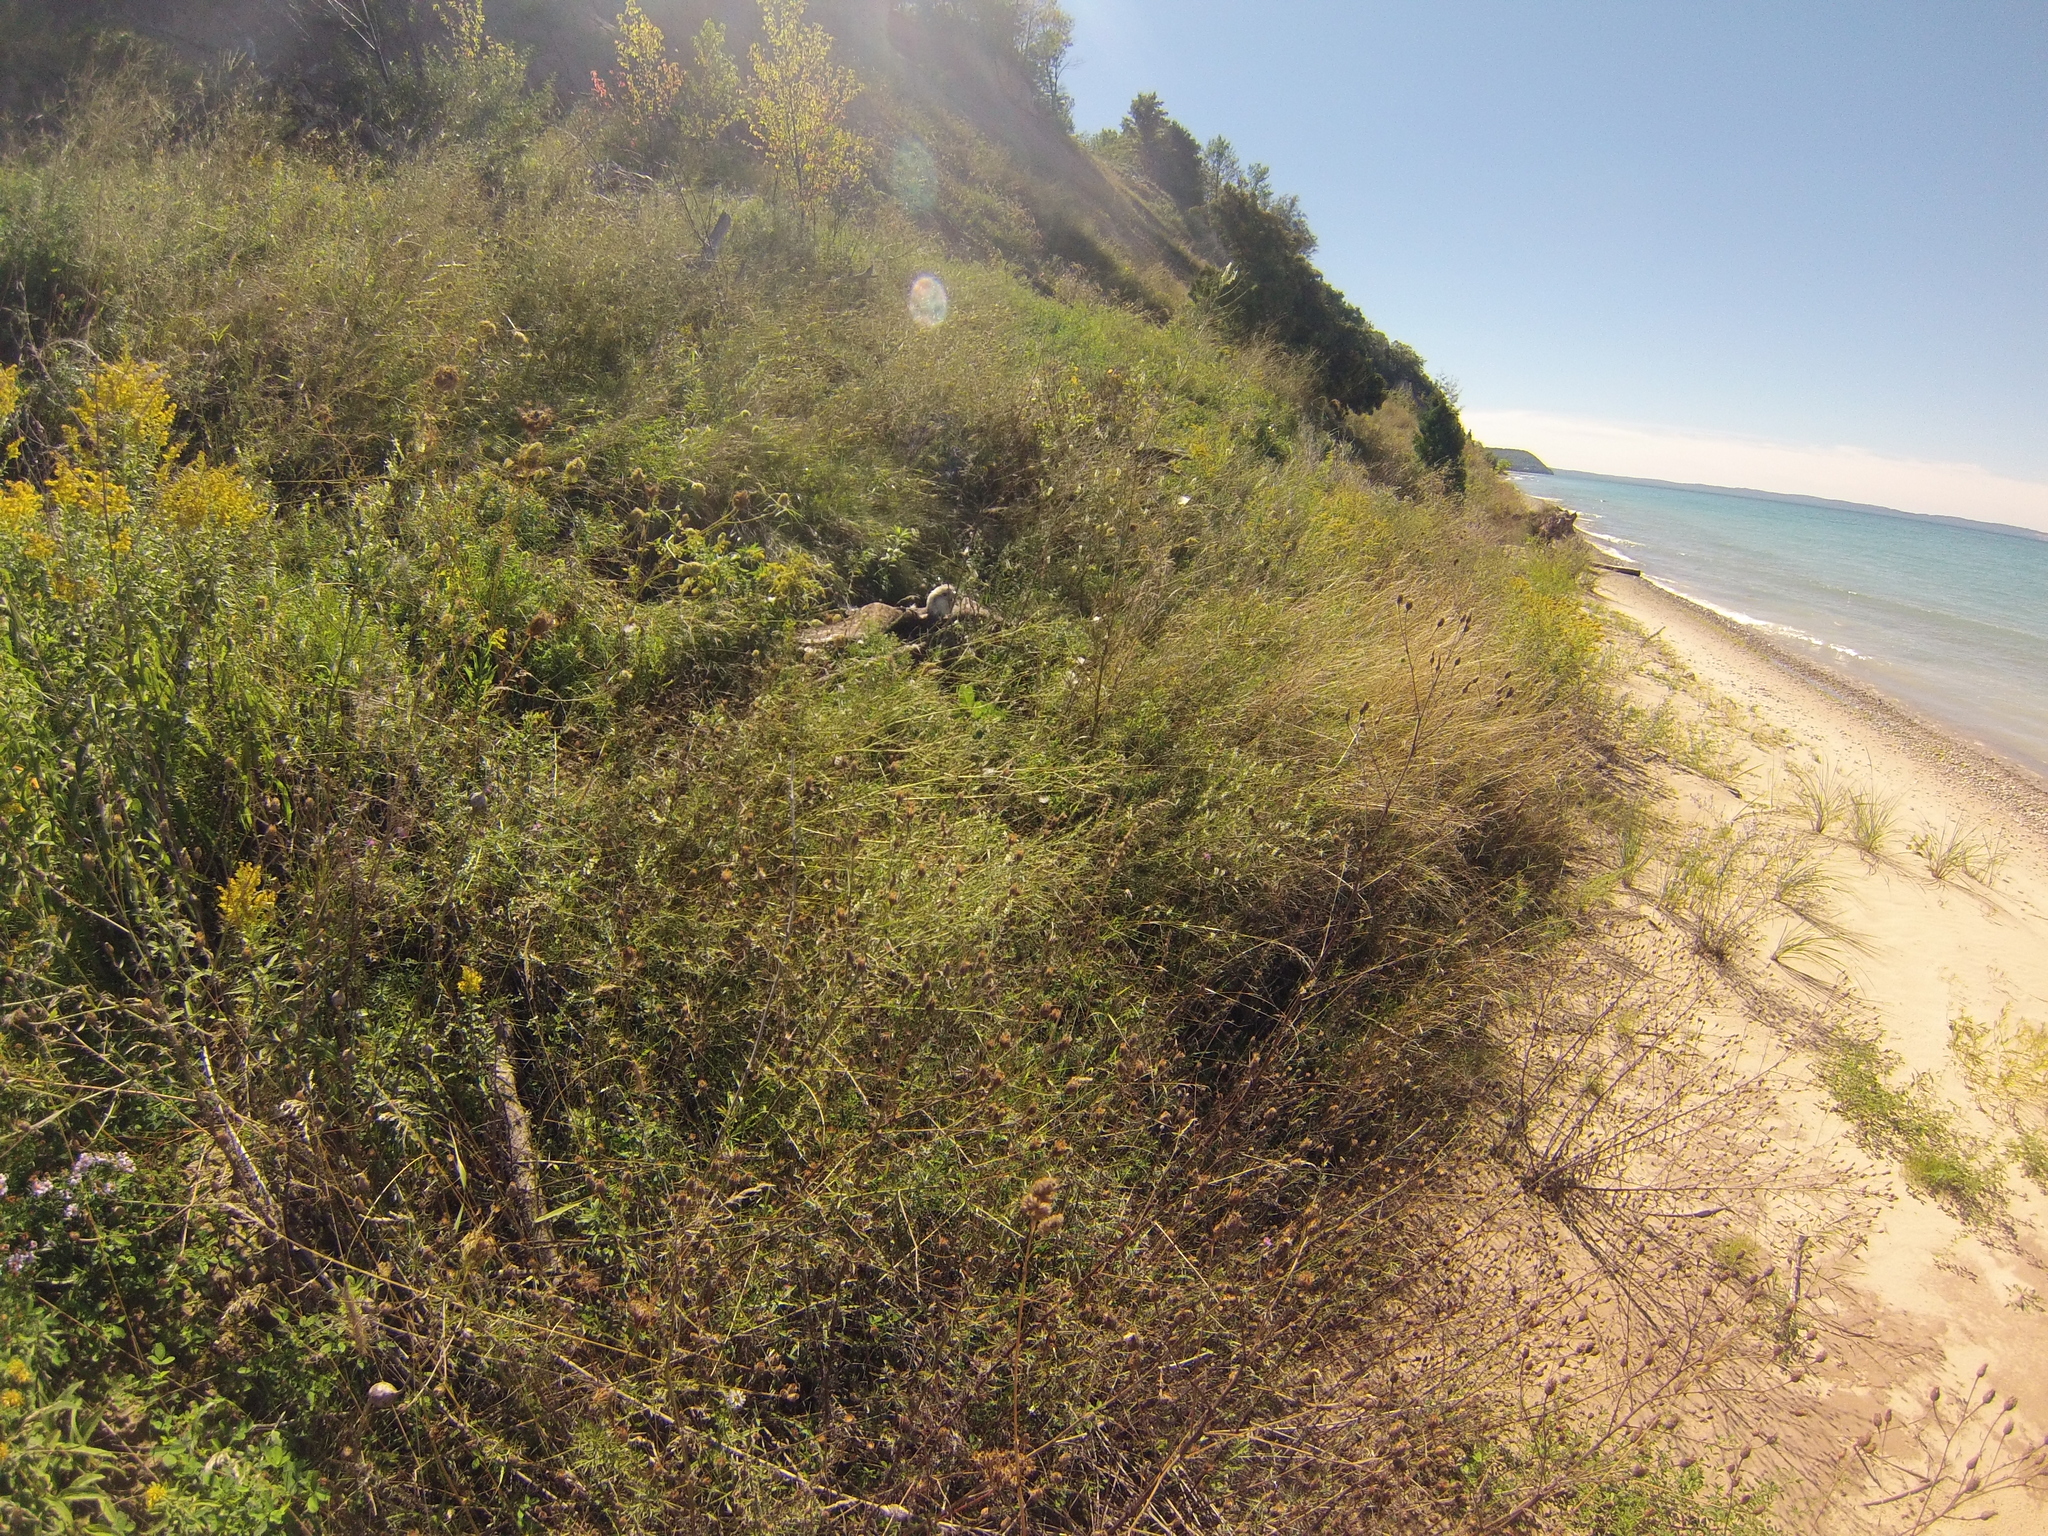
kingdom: Animalia
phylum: Chordata
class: Aves
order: Accipitriformes
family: Accipitridae
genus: Haliaeetus
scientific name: Haliaeetus leucocephalus
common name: Bald eagle
